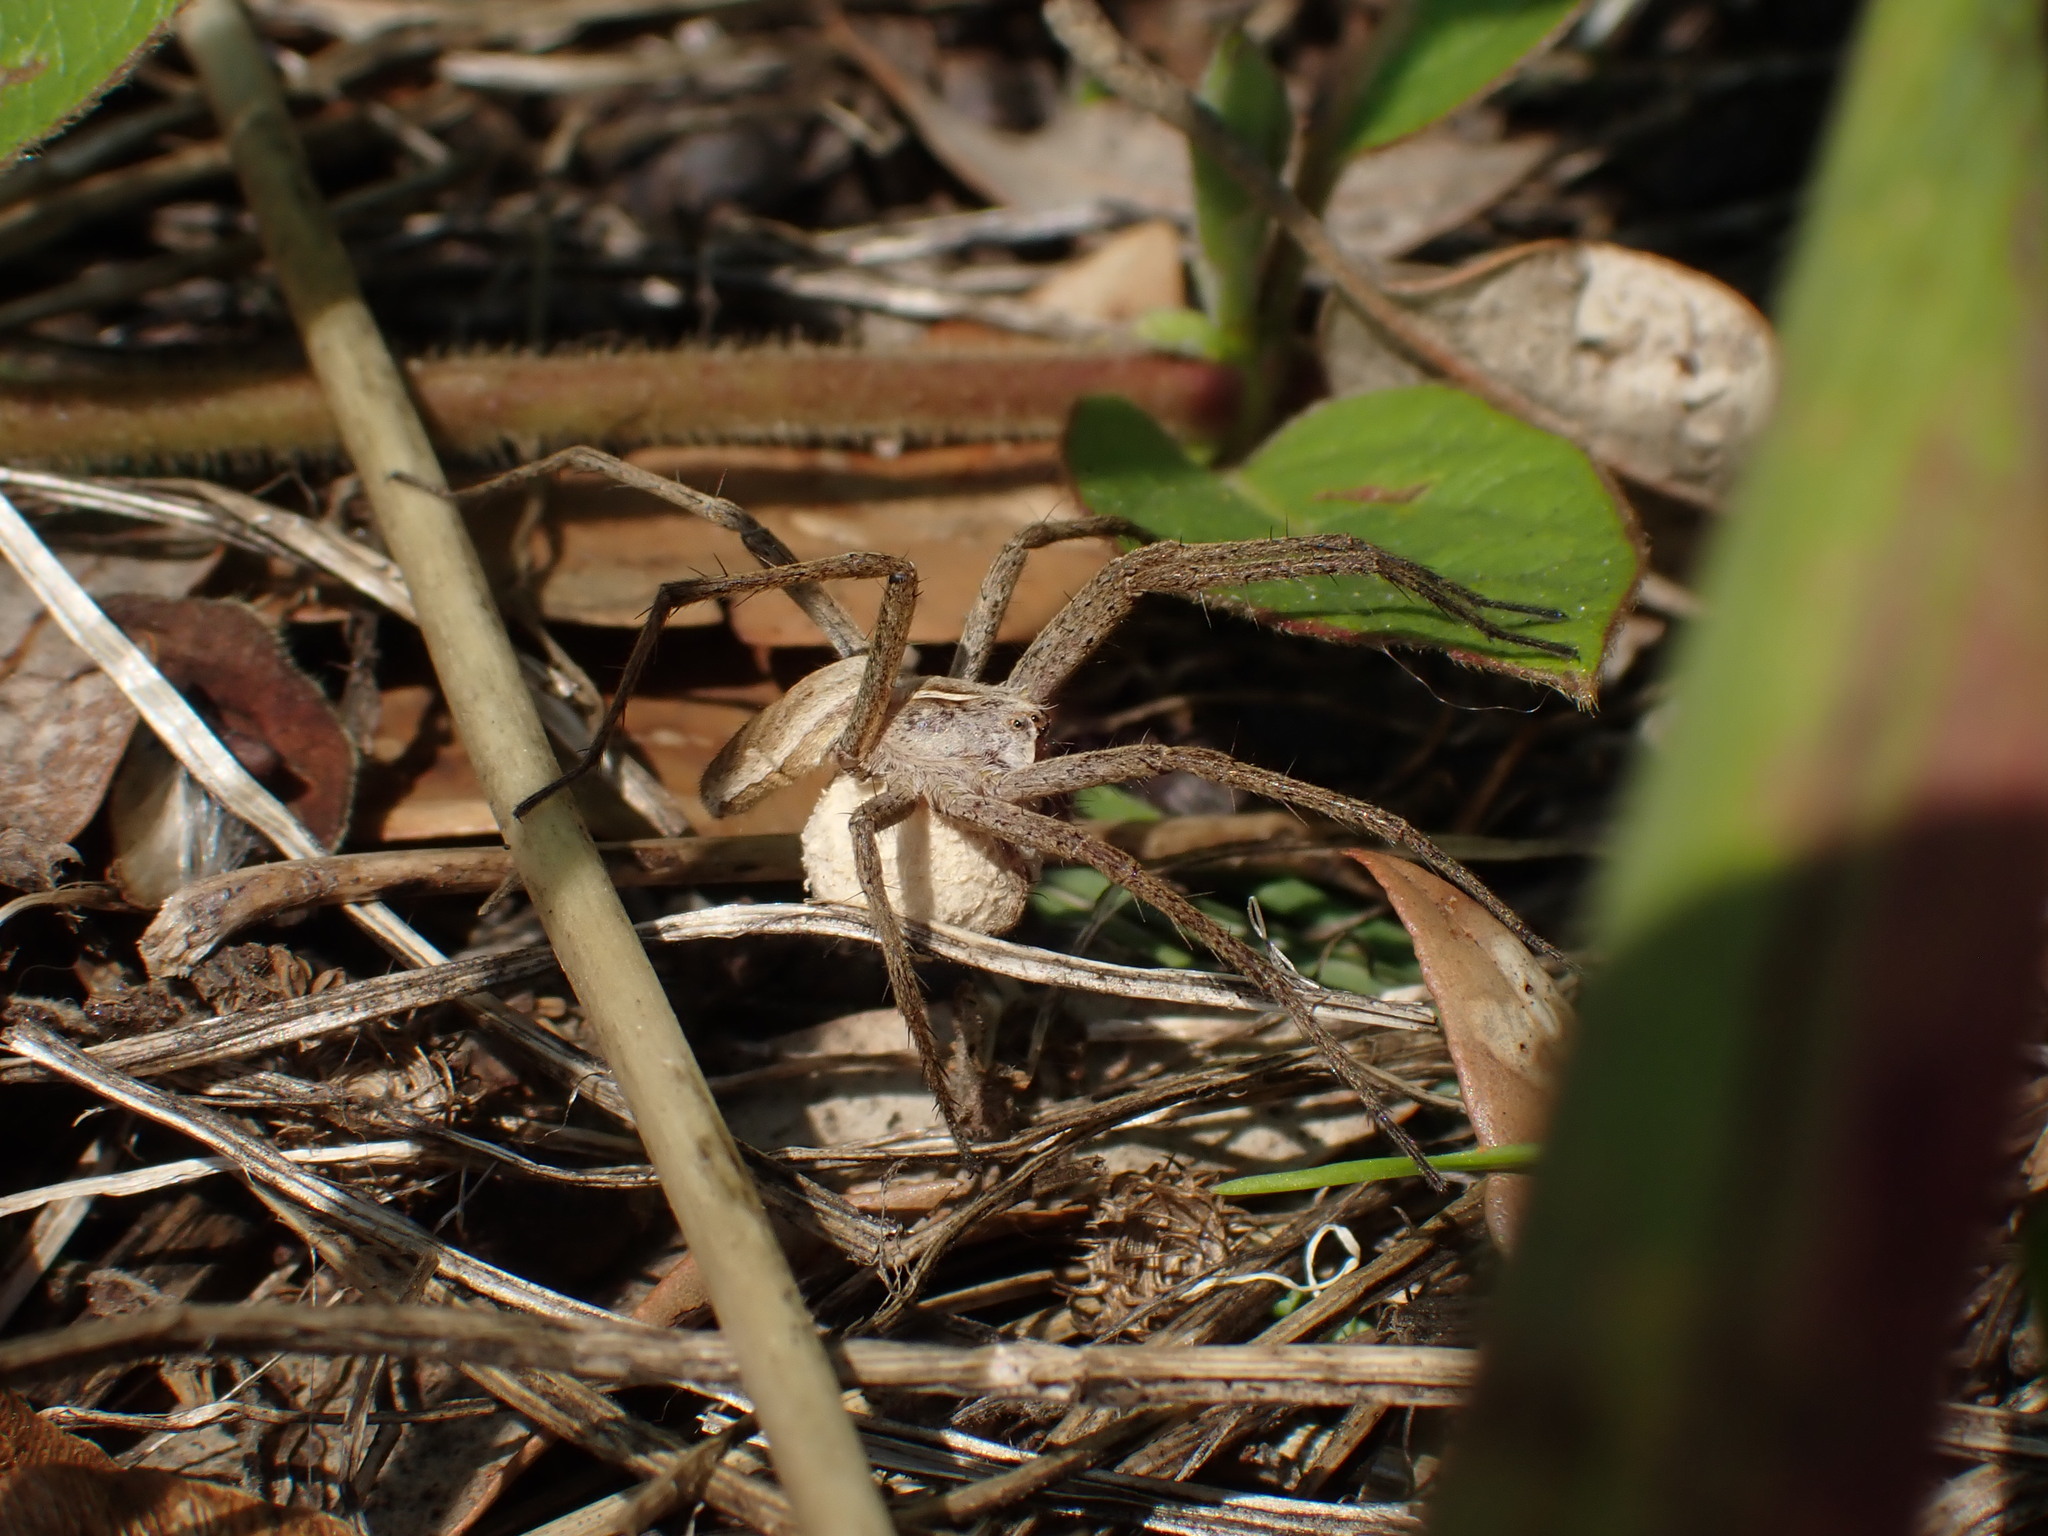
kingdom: Animalia
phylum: Arthropoda
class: Arachnida
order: Araneae
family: Pisauridae
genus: Pisaura
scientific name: Pisaura mirabilis
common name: Tent spider
